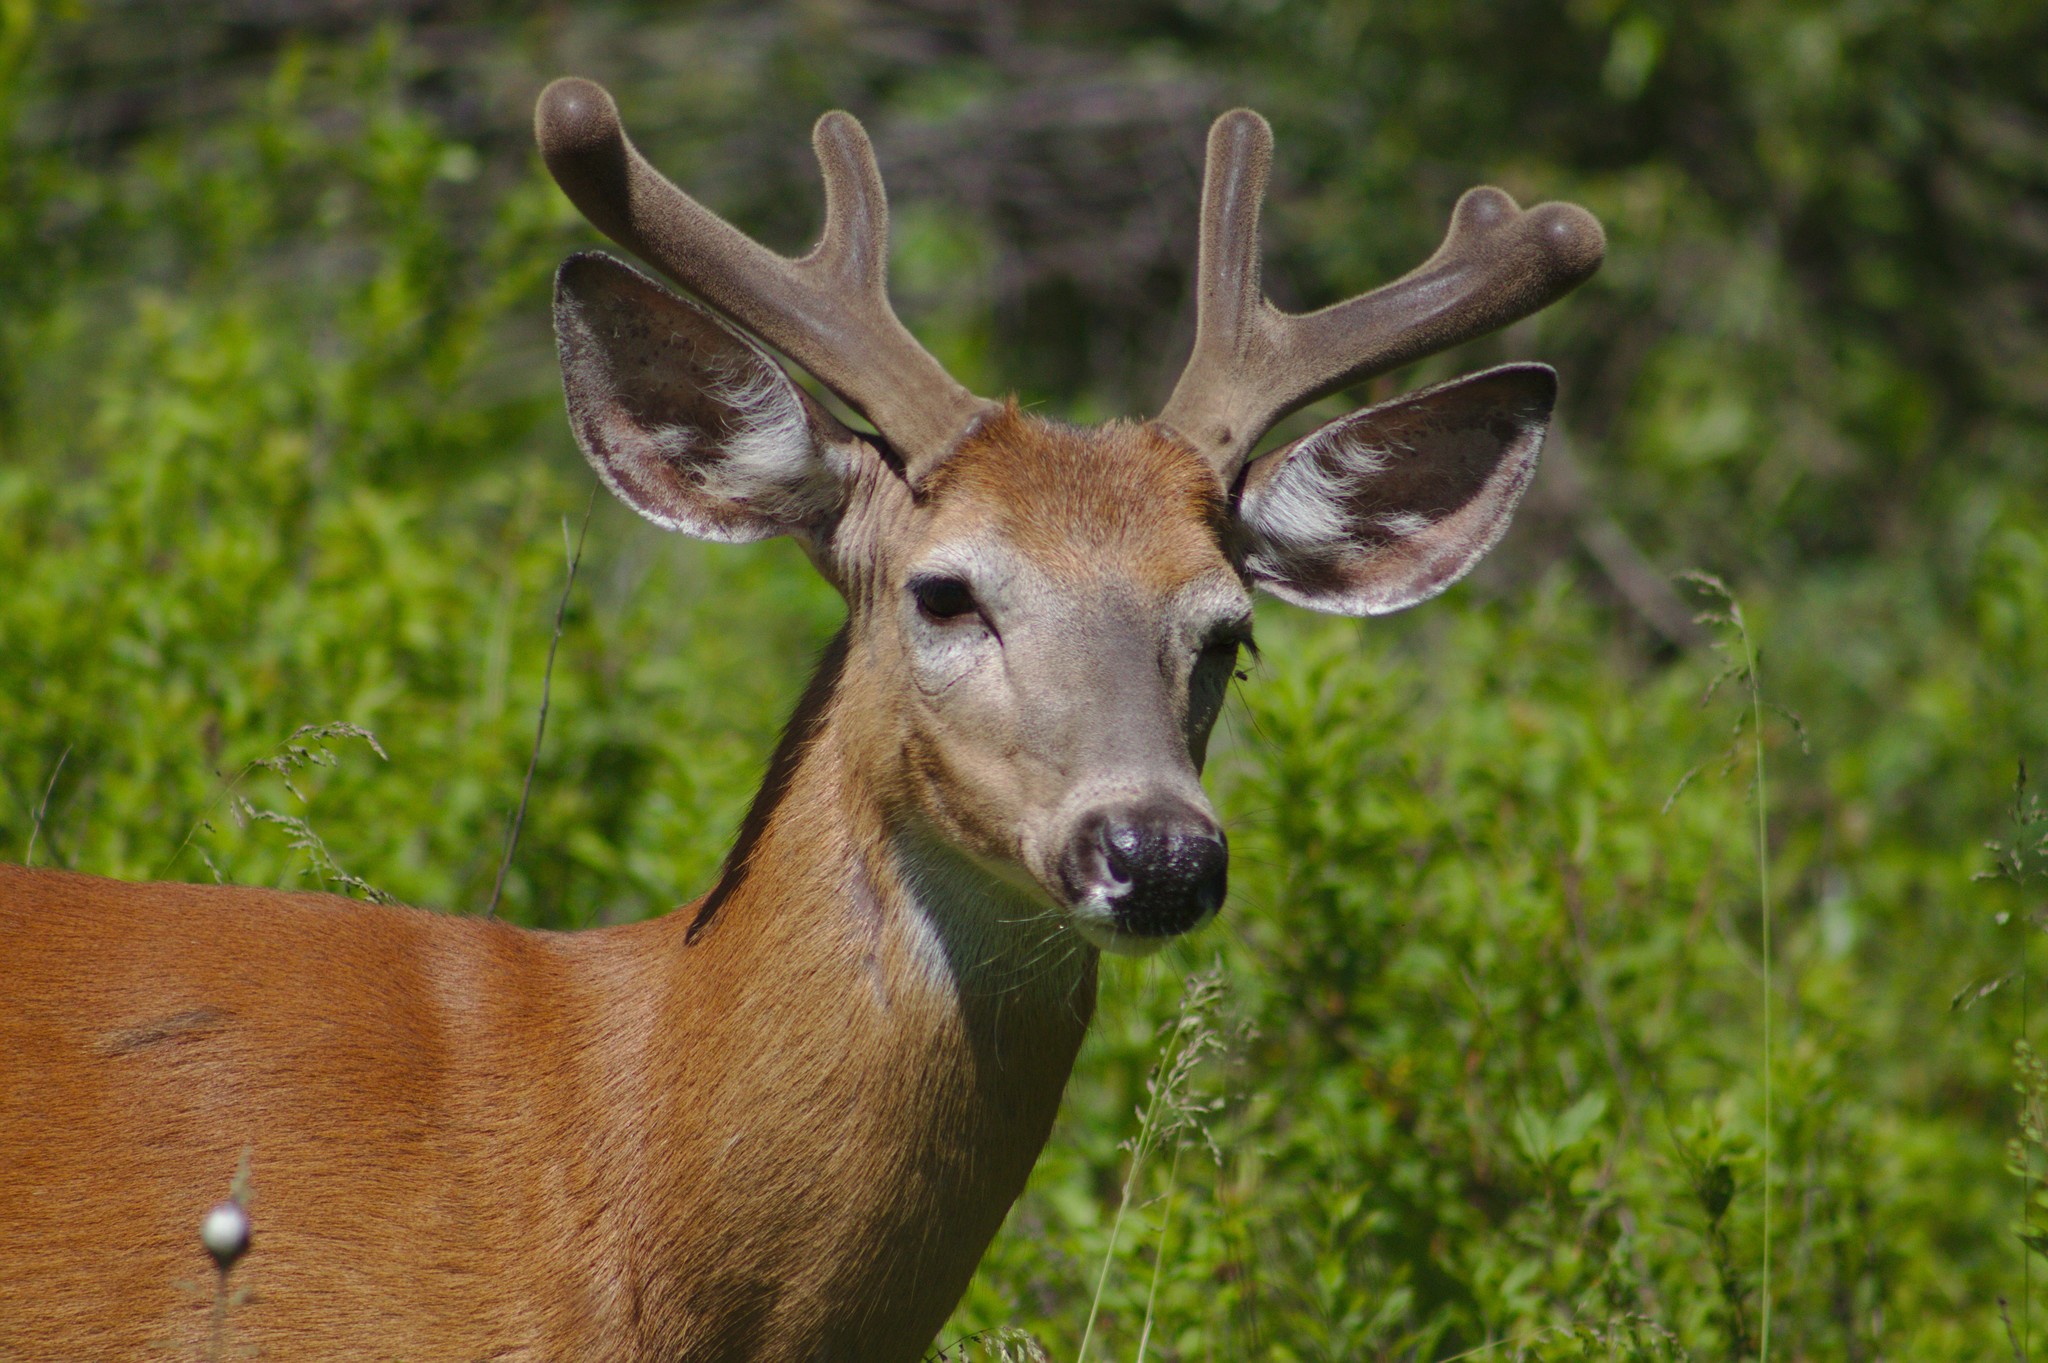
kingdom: Animalia
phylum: Chordata
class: Mammalia
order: Artiodactyla
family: Cervidae
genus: Odocoileus
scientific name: Odocoileus virginianus
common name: White-tailed deer
